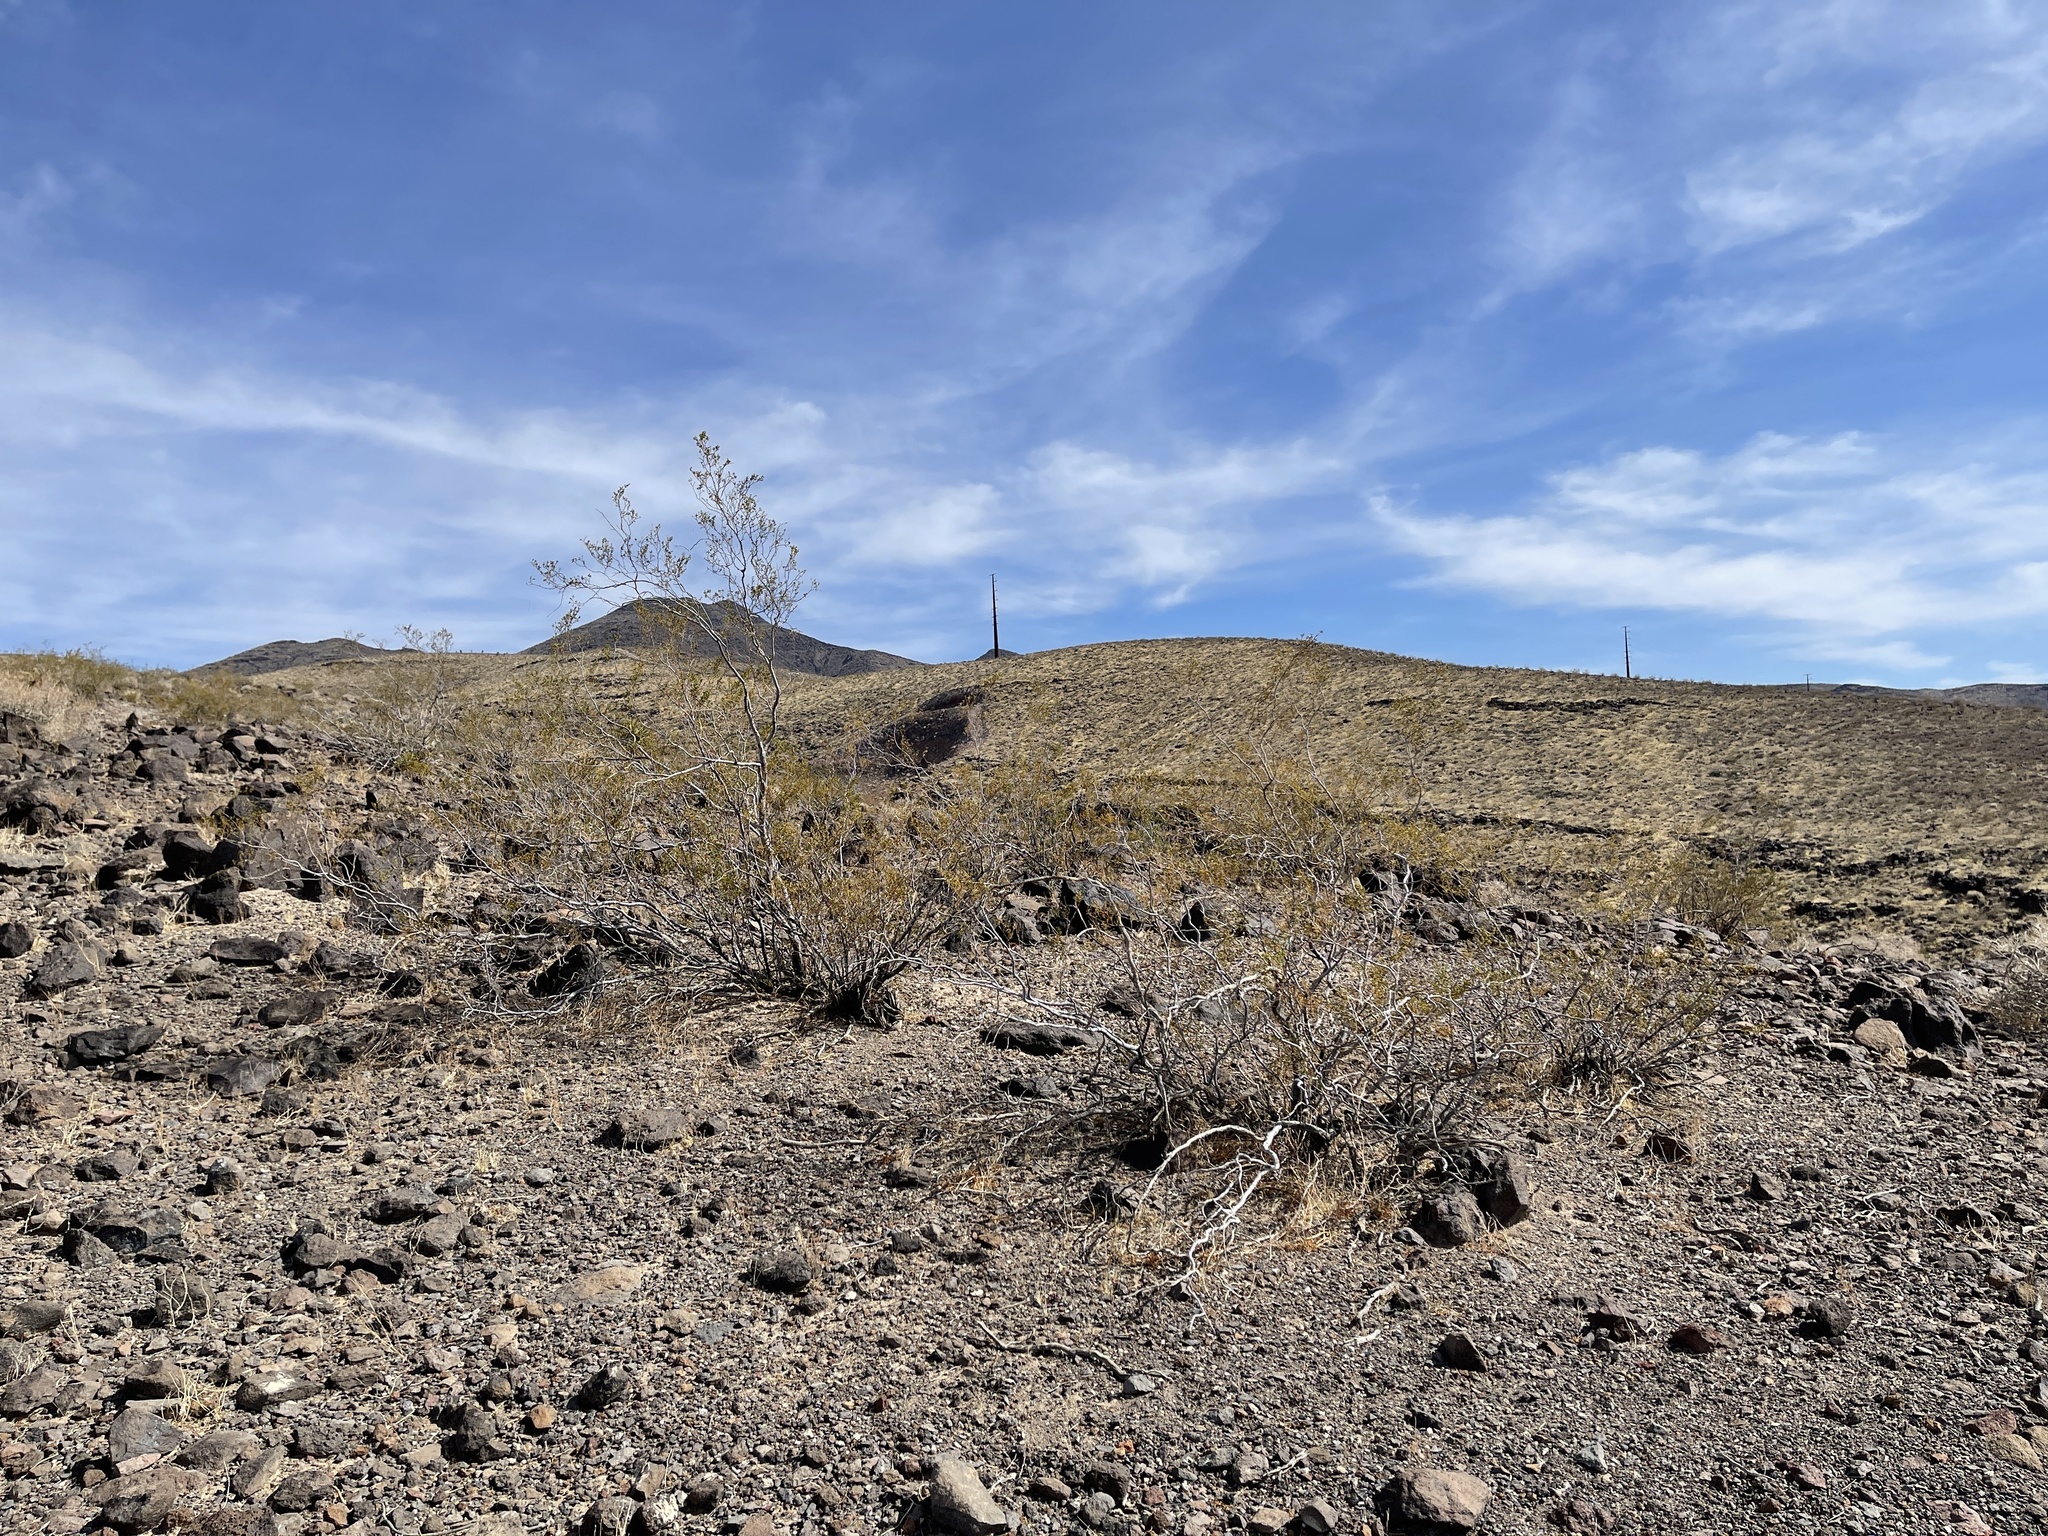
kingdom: Plantae
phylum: Tracheophyta
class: Magnoliopsida
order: Zygophyllales
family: Zygophyllaceae
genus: Larrea
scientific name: Larrea tridentata
